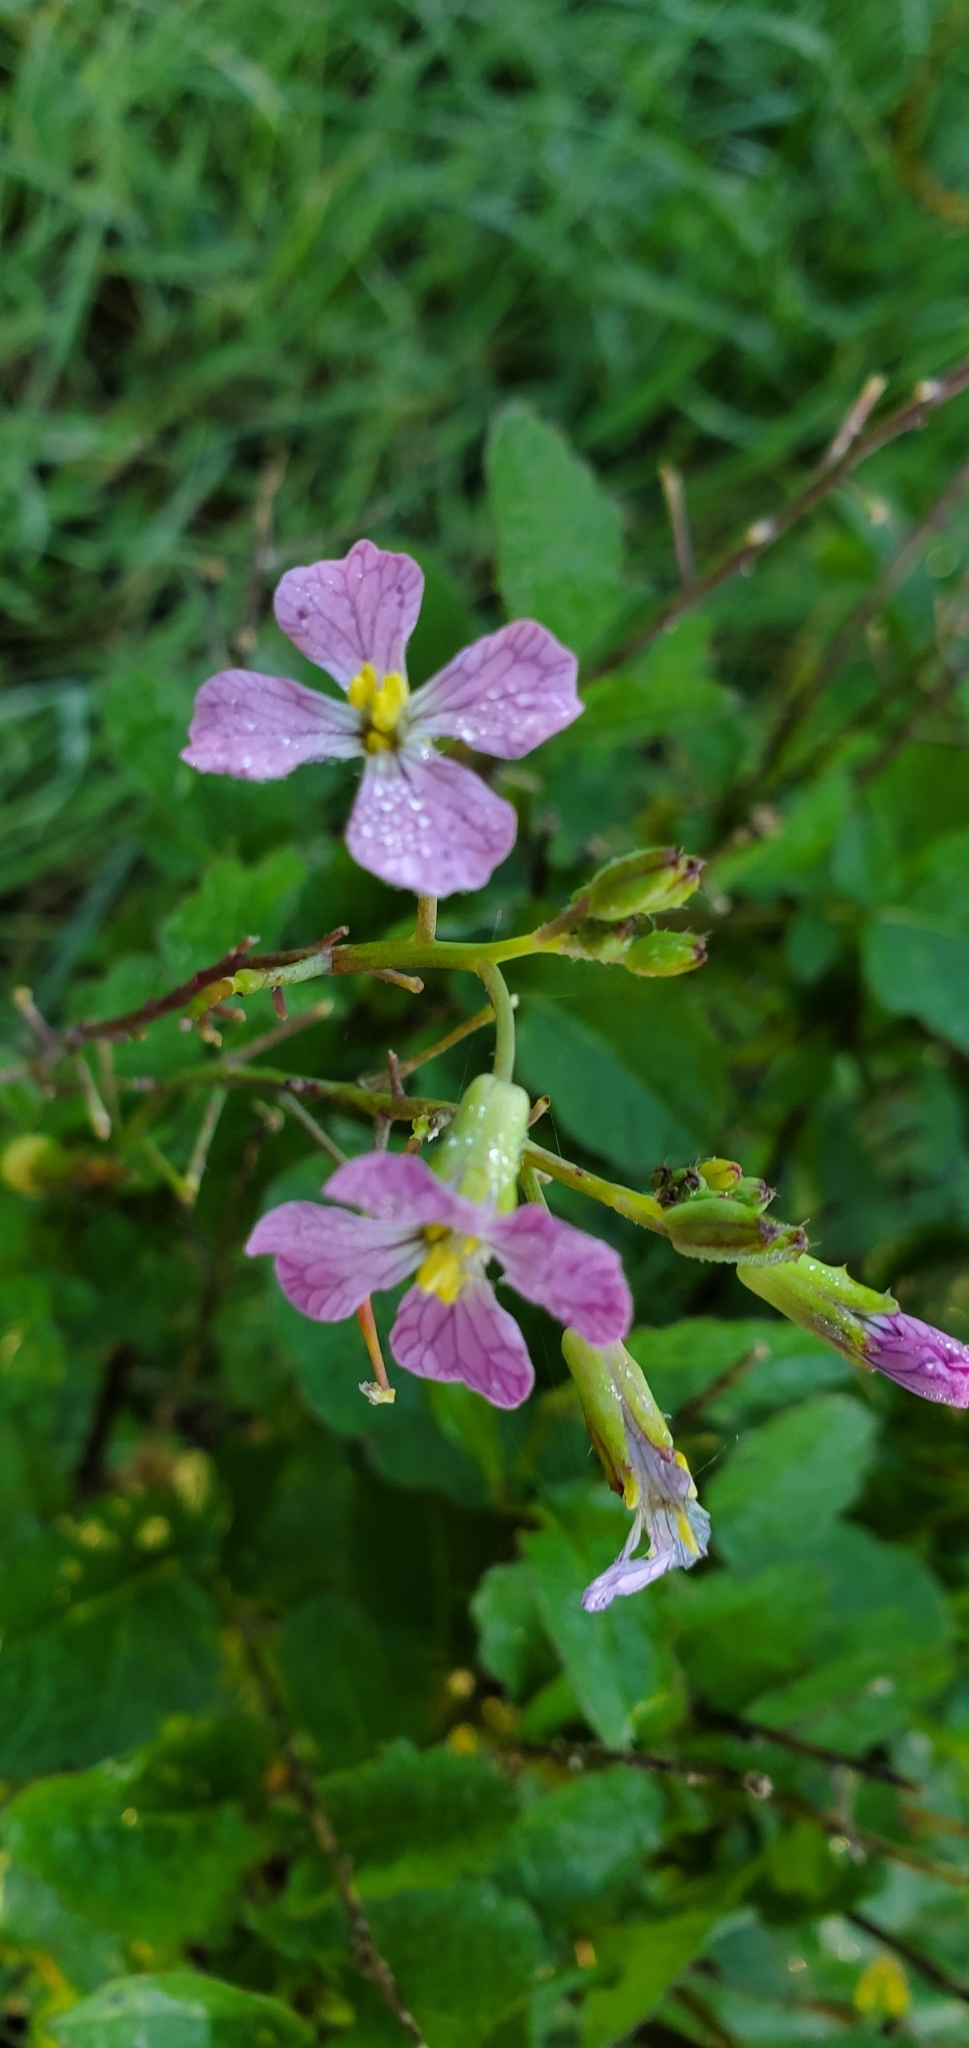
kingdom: Plantae
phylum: Tracheophyta
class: Magnoliopsida
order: Brassicales
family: Brassicaceae
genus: Raphanus
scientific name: Raphanus sativus
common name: Cultivated radish
